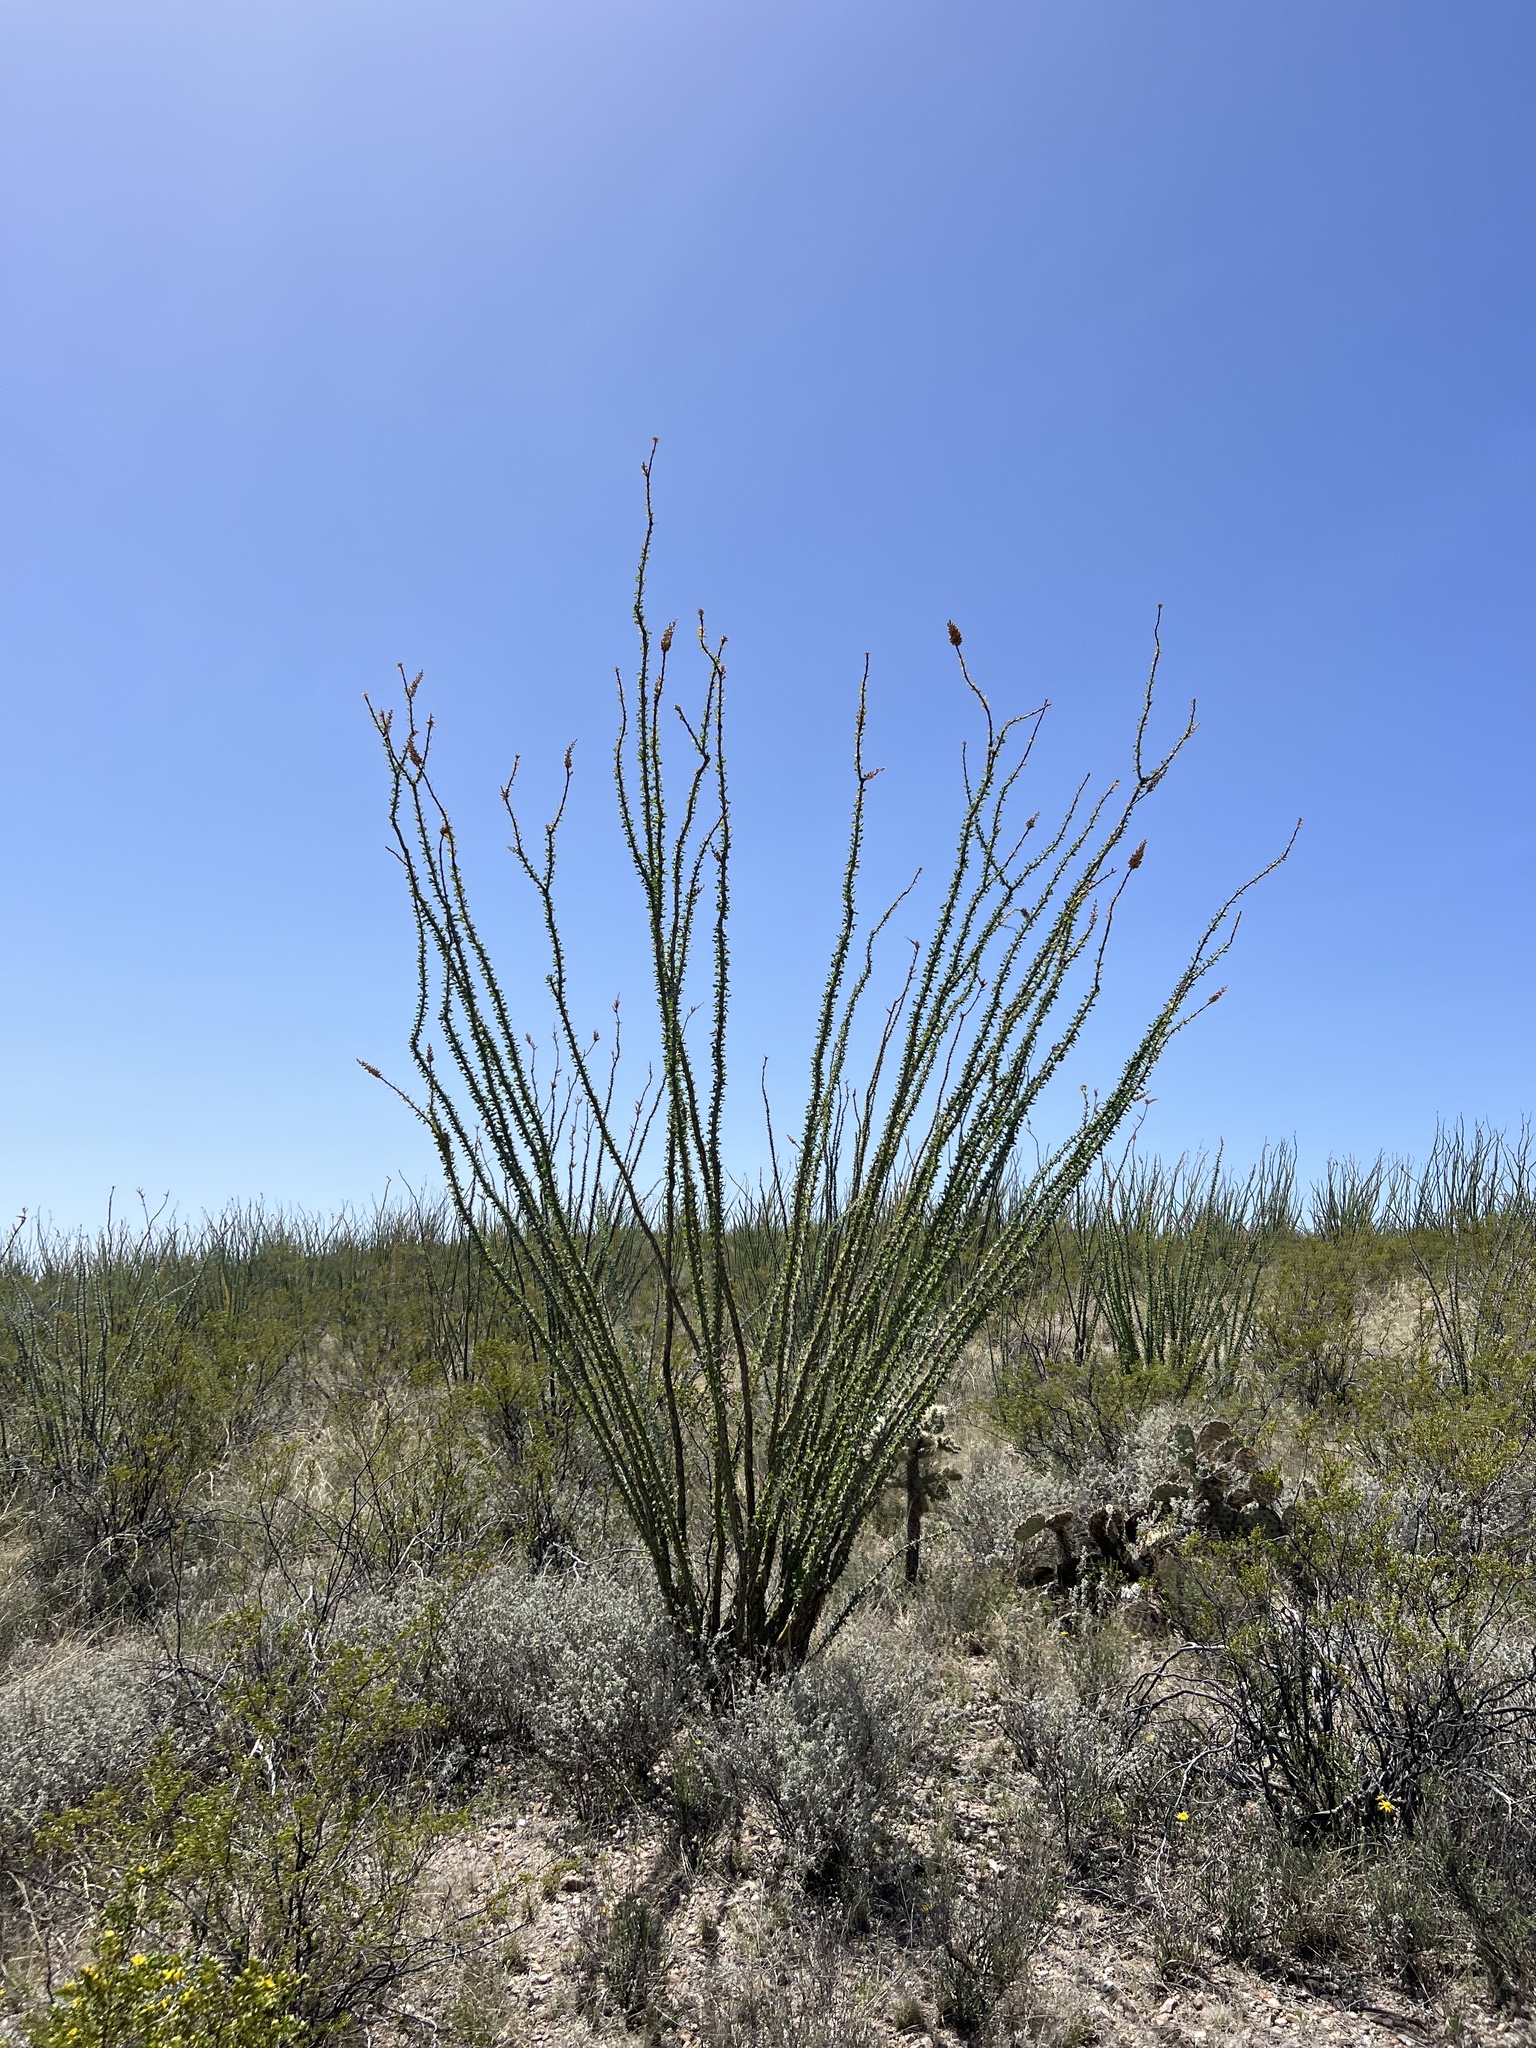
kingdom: Plantae
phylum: Tracheophyta
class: Magnoliopsida
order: Ericales
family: Fouquieriaceae
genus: Fouquieria
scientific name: Fouquieria splendens
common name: Vine-cactus
